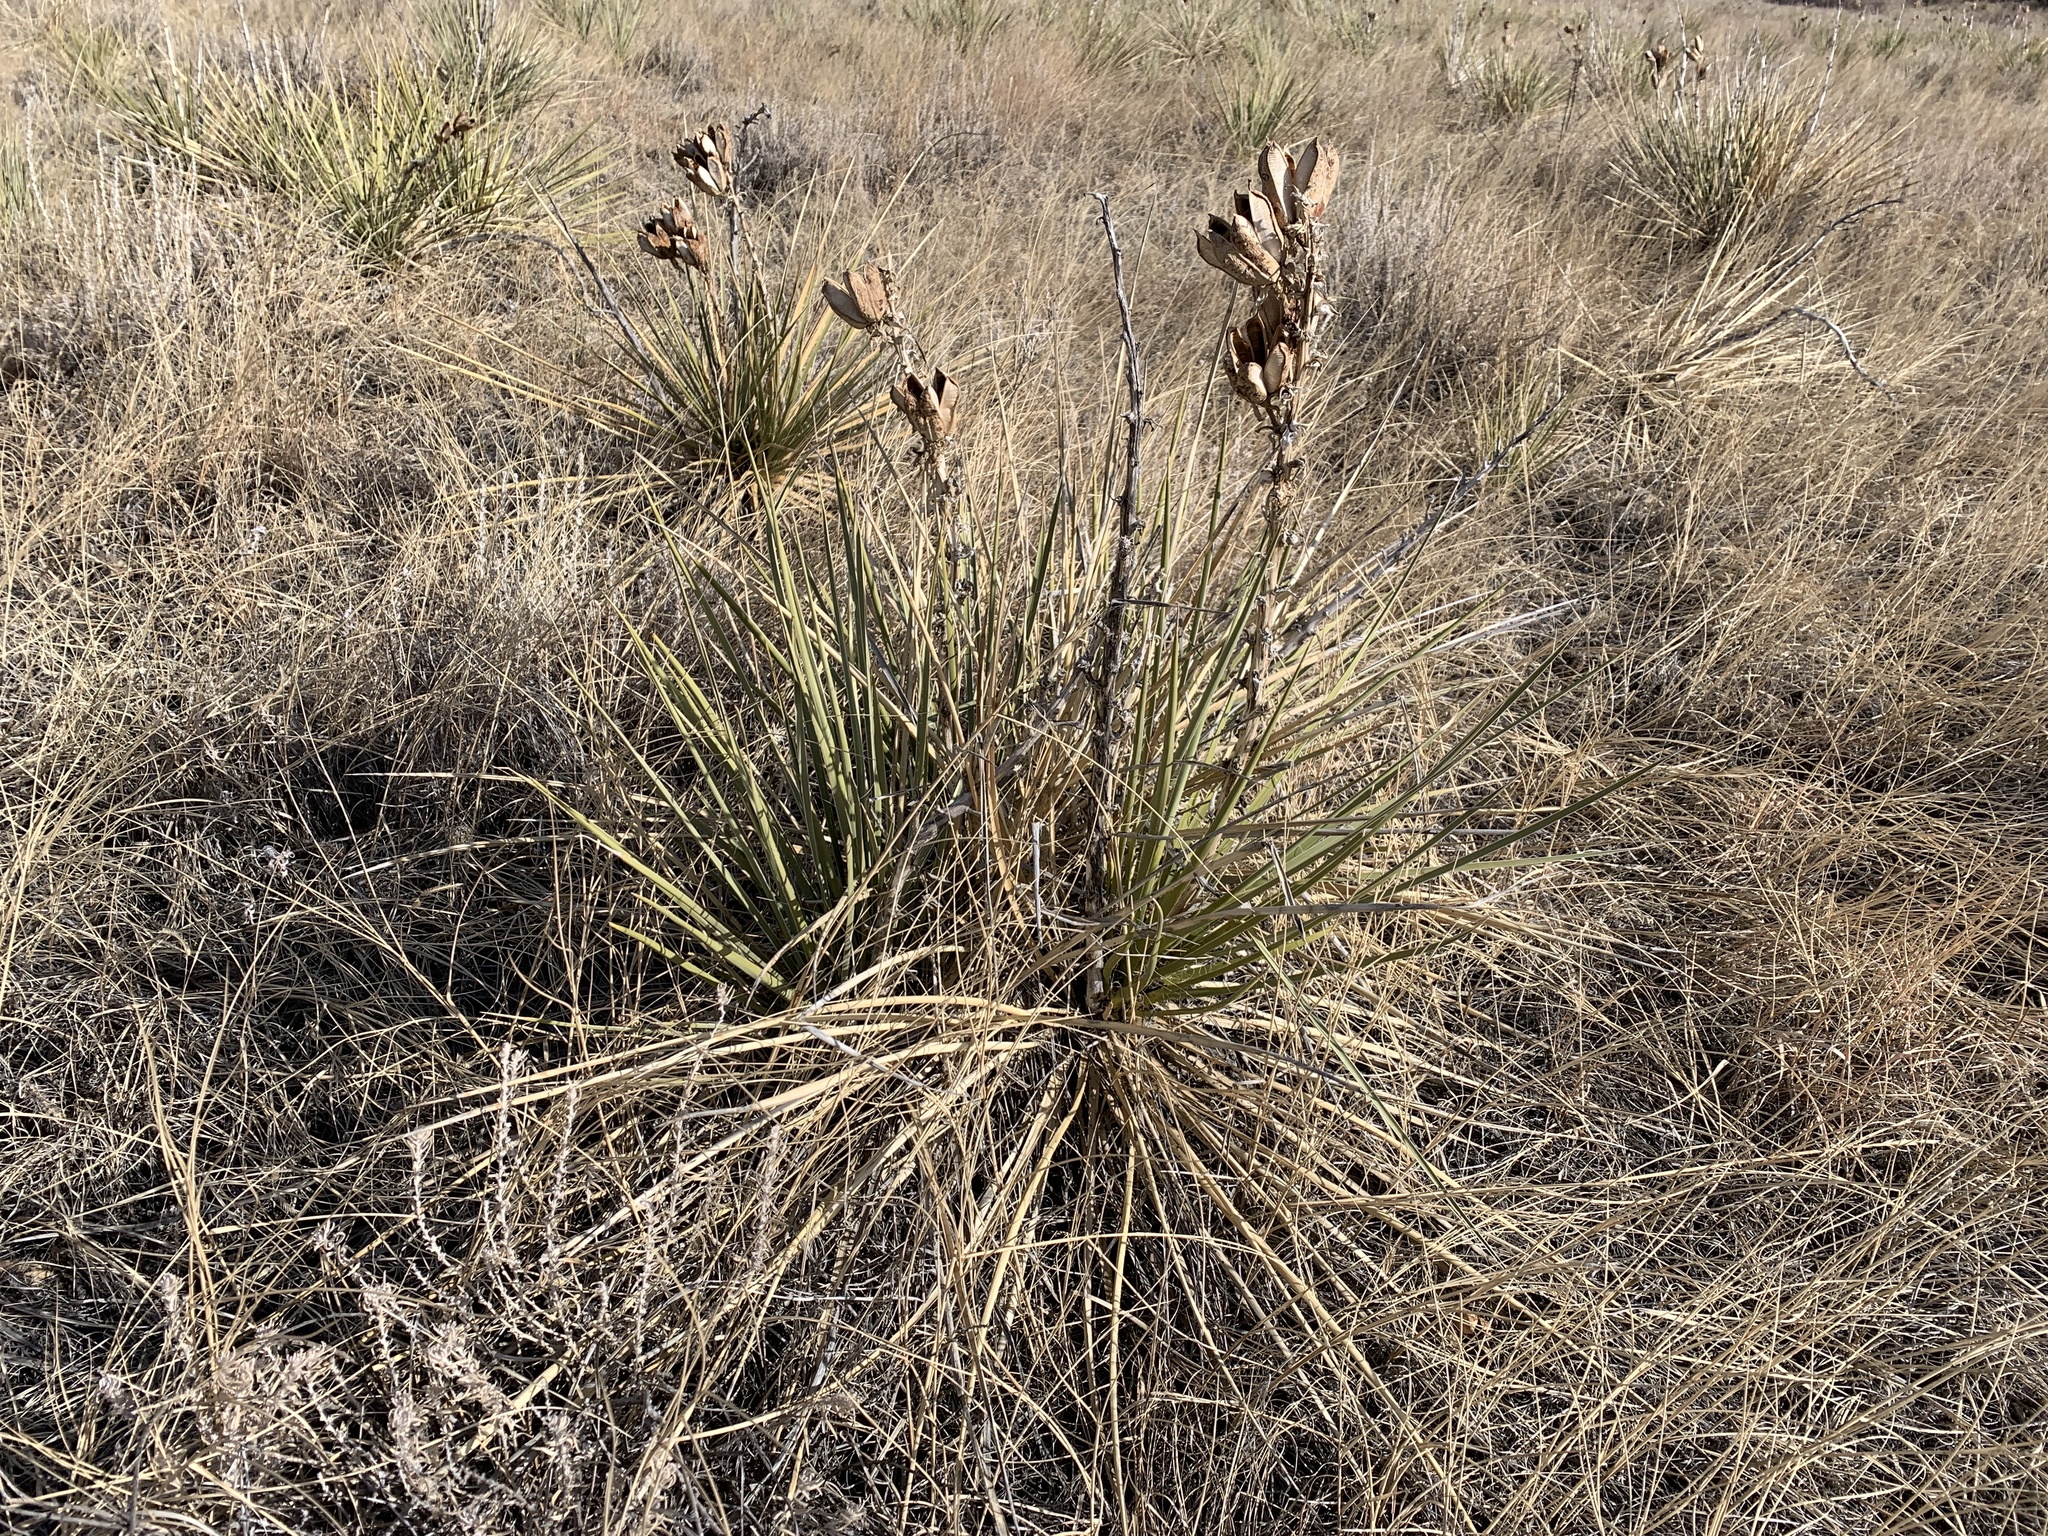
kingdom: Plantae
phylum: Tracheophyta
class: Liliopsida
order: Asparagales
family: Asparagaceae
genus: Yucca
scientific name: Yucca glauca
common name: Great plains yucca
